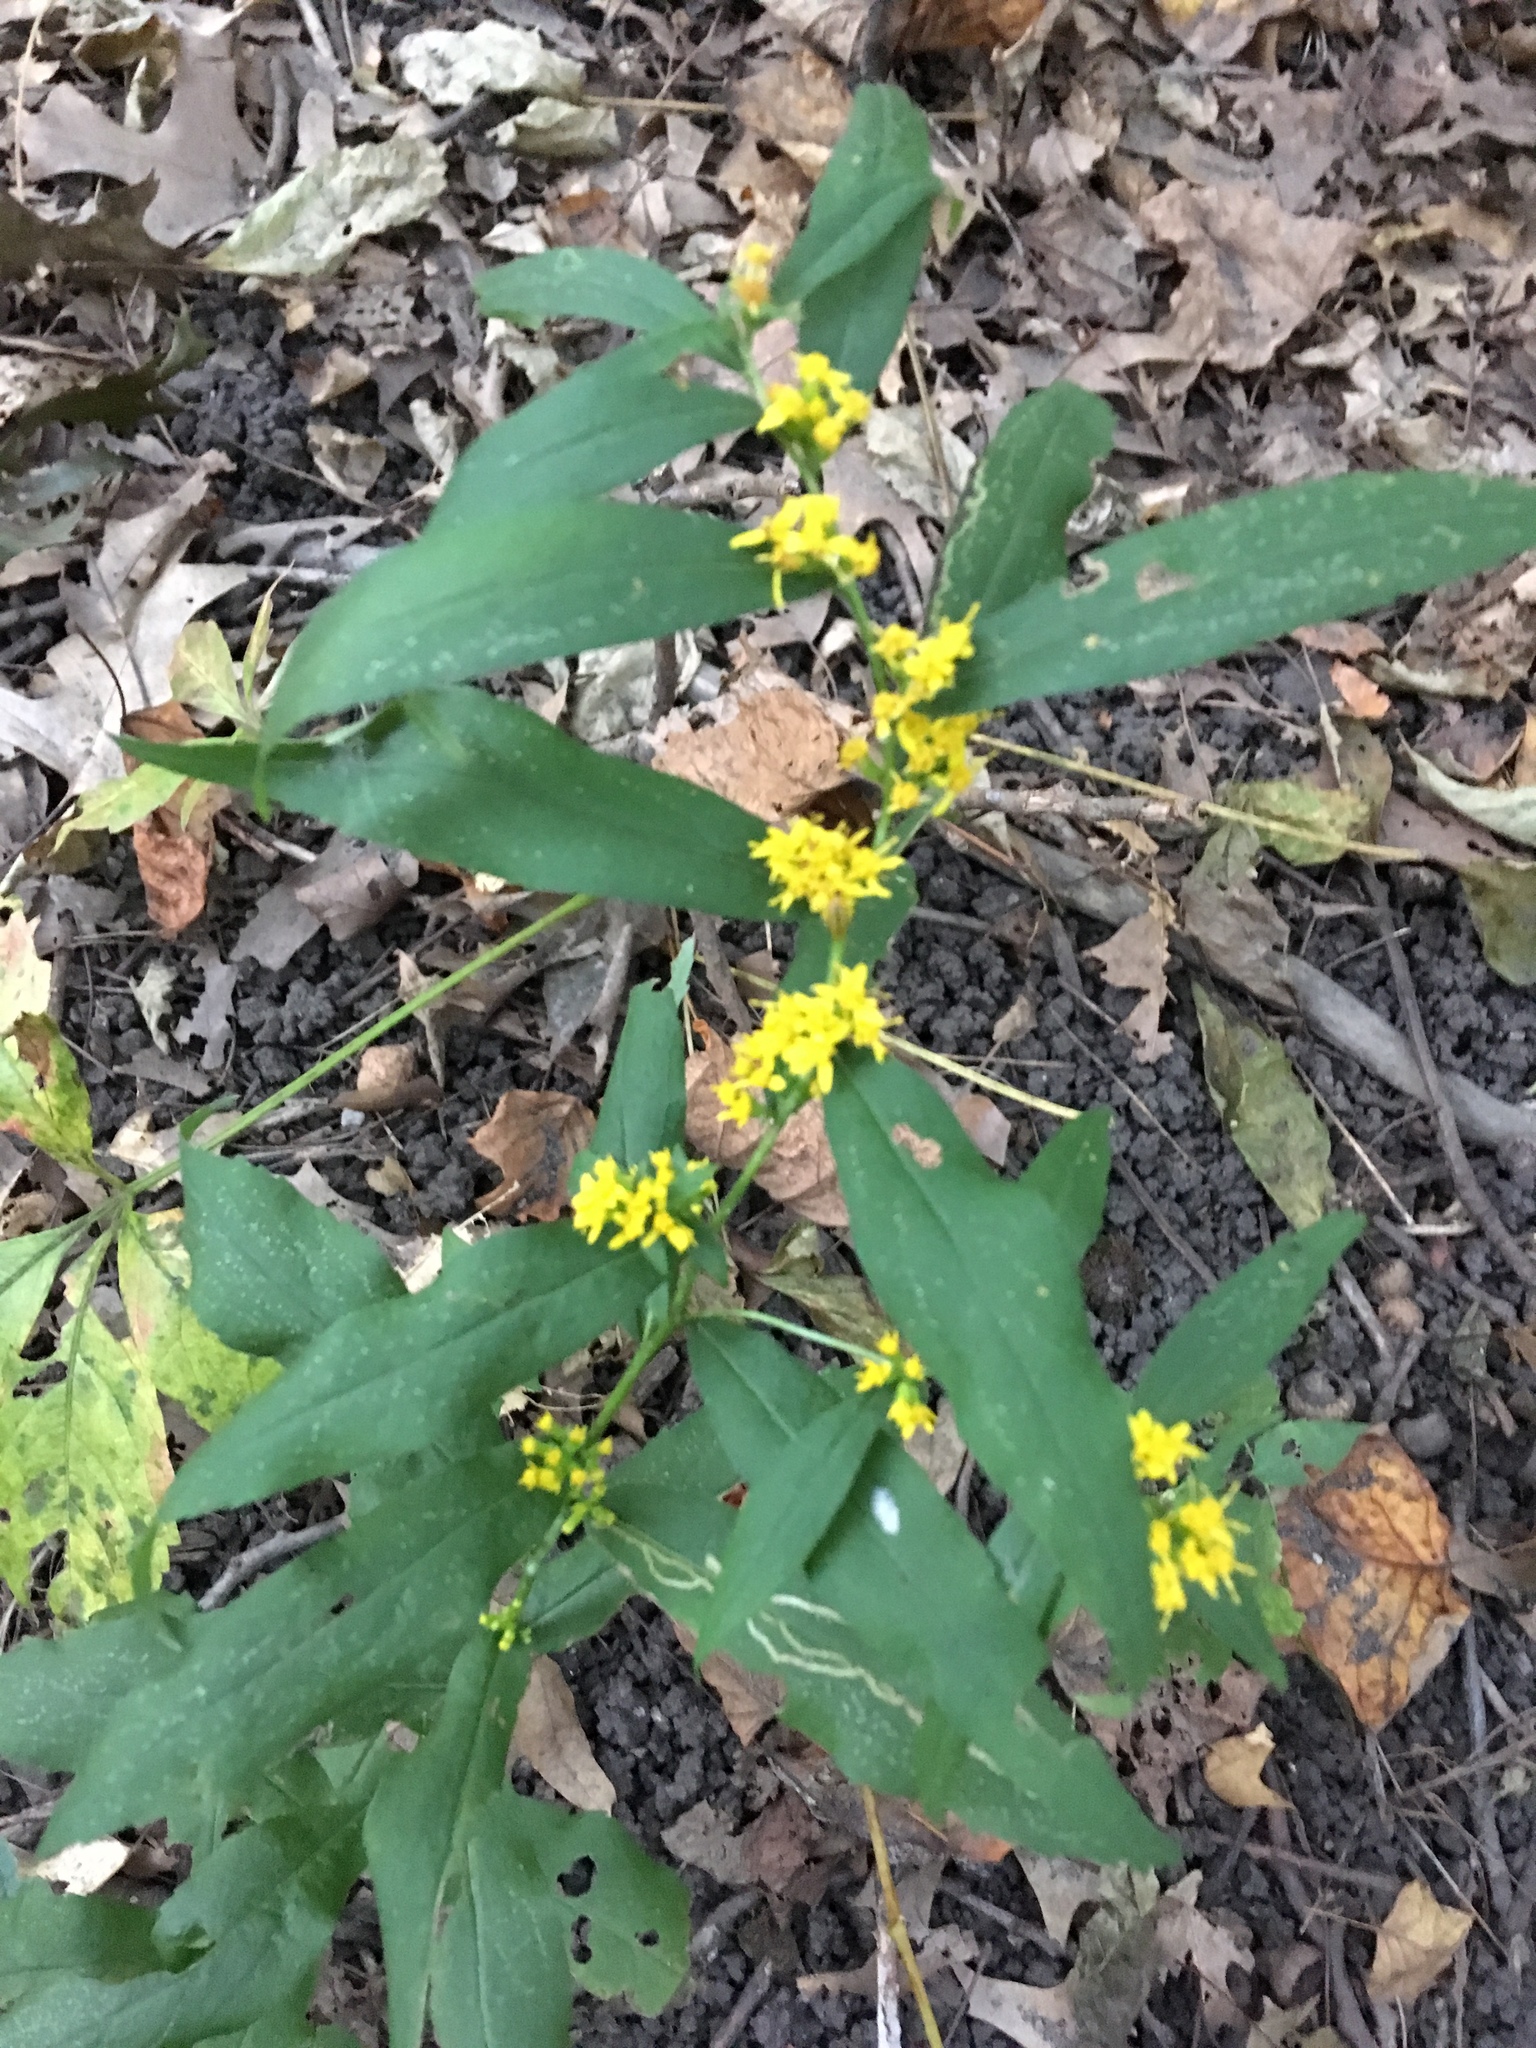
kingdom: Plantae
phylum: Tracheophyta
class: Magnoliopsida
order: Asterales
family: Asteraceae
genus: Solidago
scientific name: Solidago caesia
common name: Woodland goldenrod
